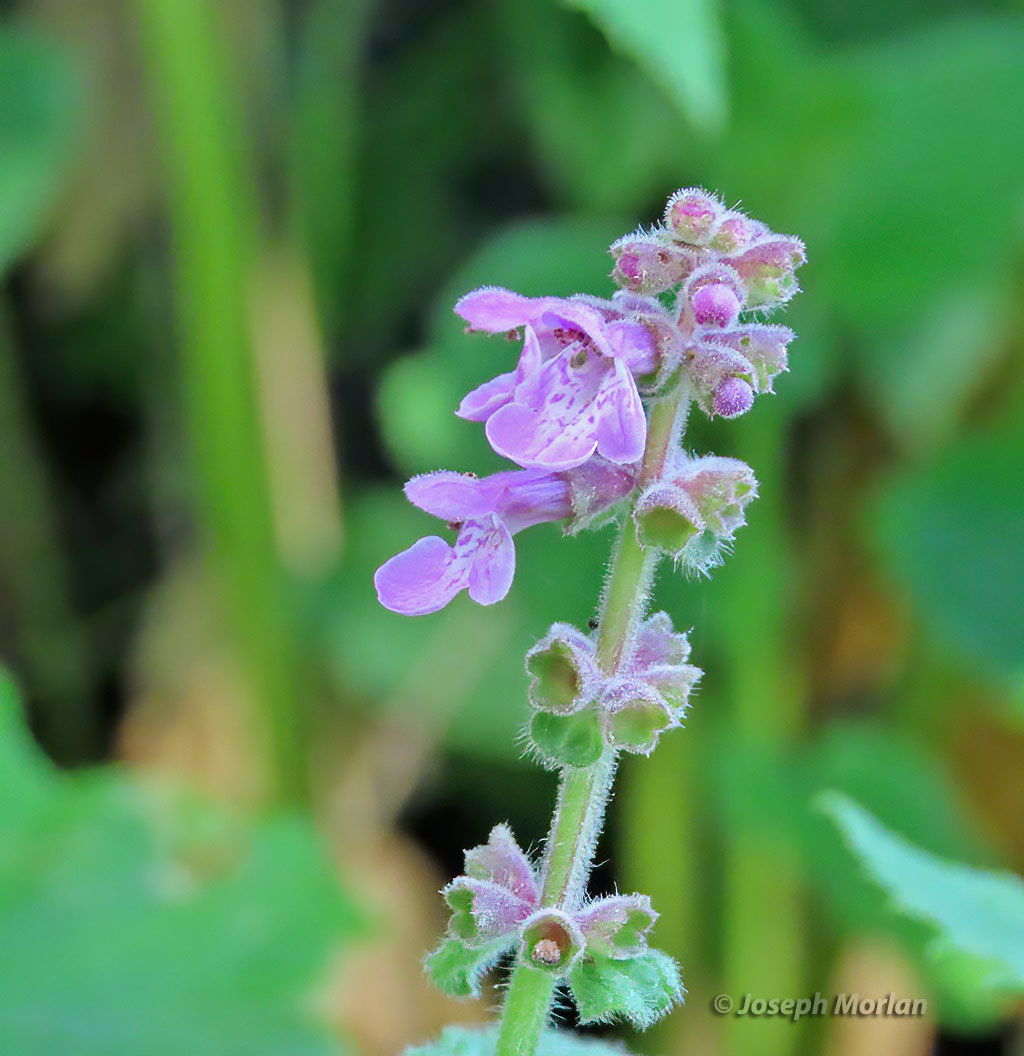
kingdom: Plantae
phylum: Tracheophyta
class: Magnoliopsida
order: Lamiales
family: Lamiaceae
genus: Stachys
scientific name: Stachys bullata
